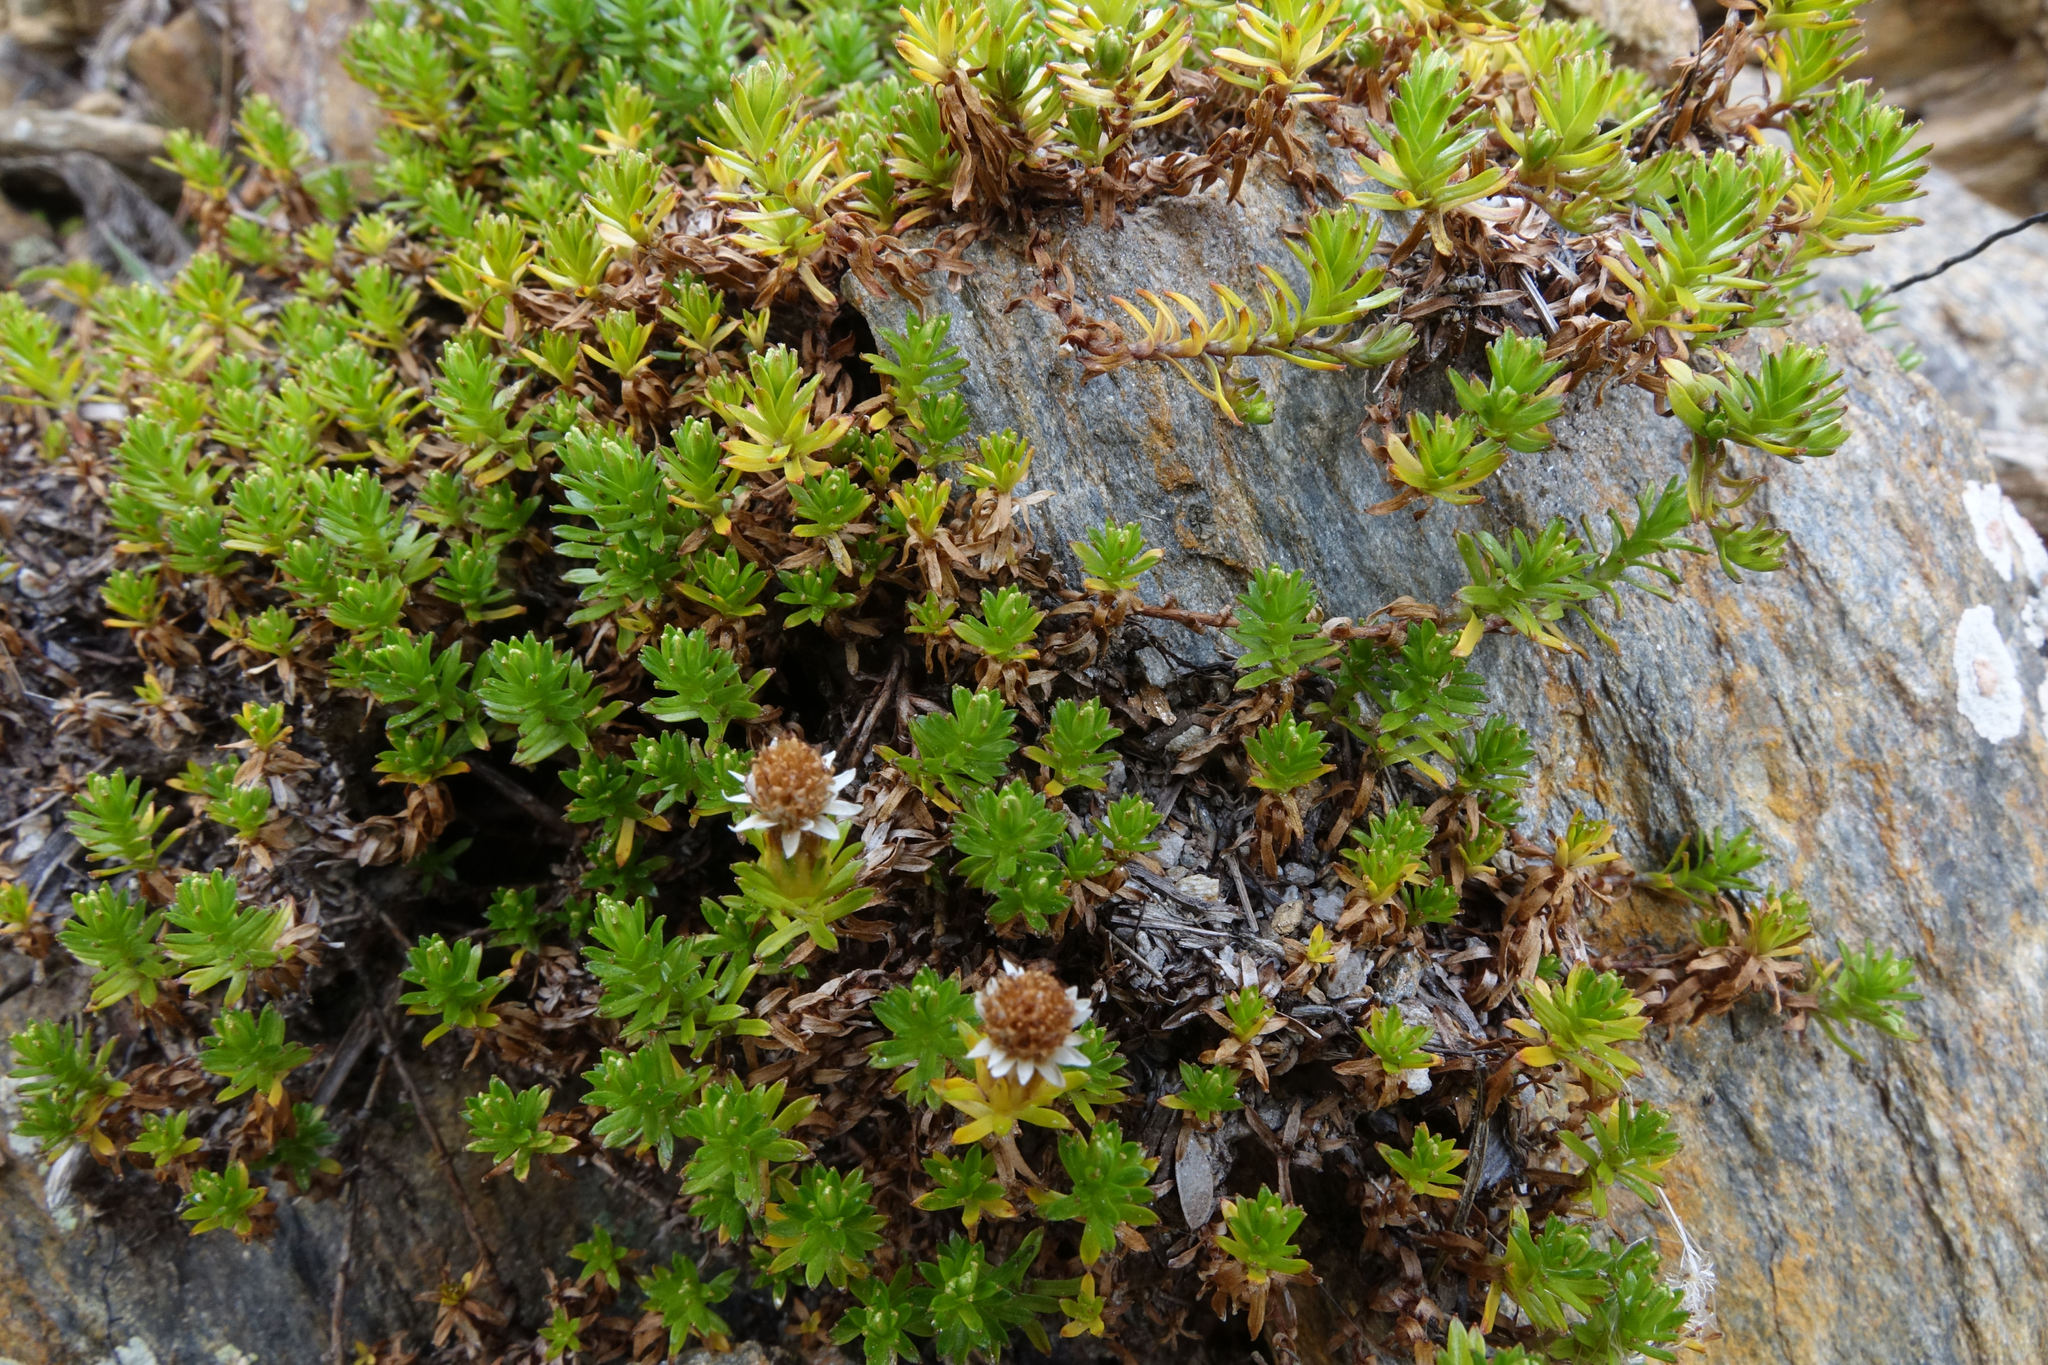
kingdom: Plantae
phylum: Tracheophyta
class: Magnoliopsida
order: Asterales
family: Asteraceae
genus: Raoulia
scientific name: Raoulia glabra
